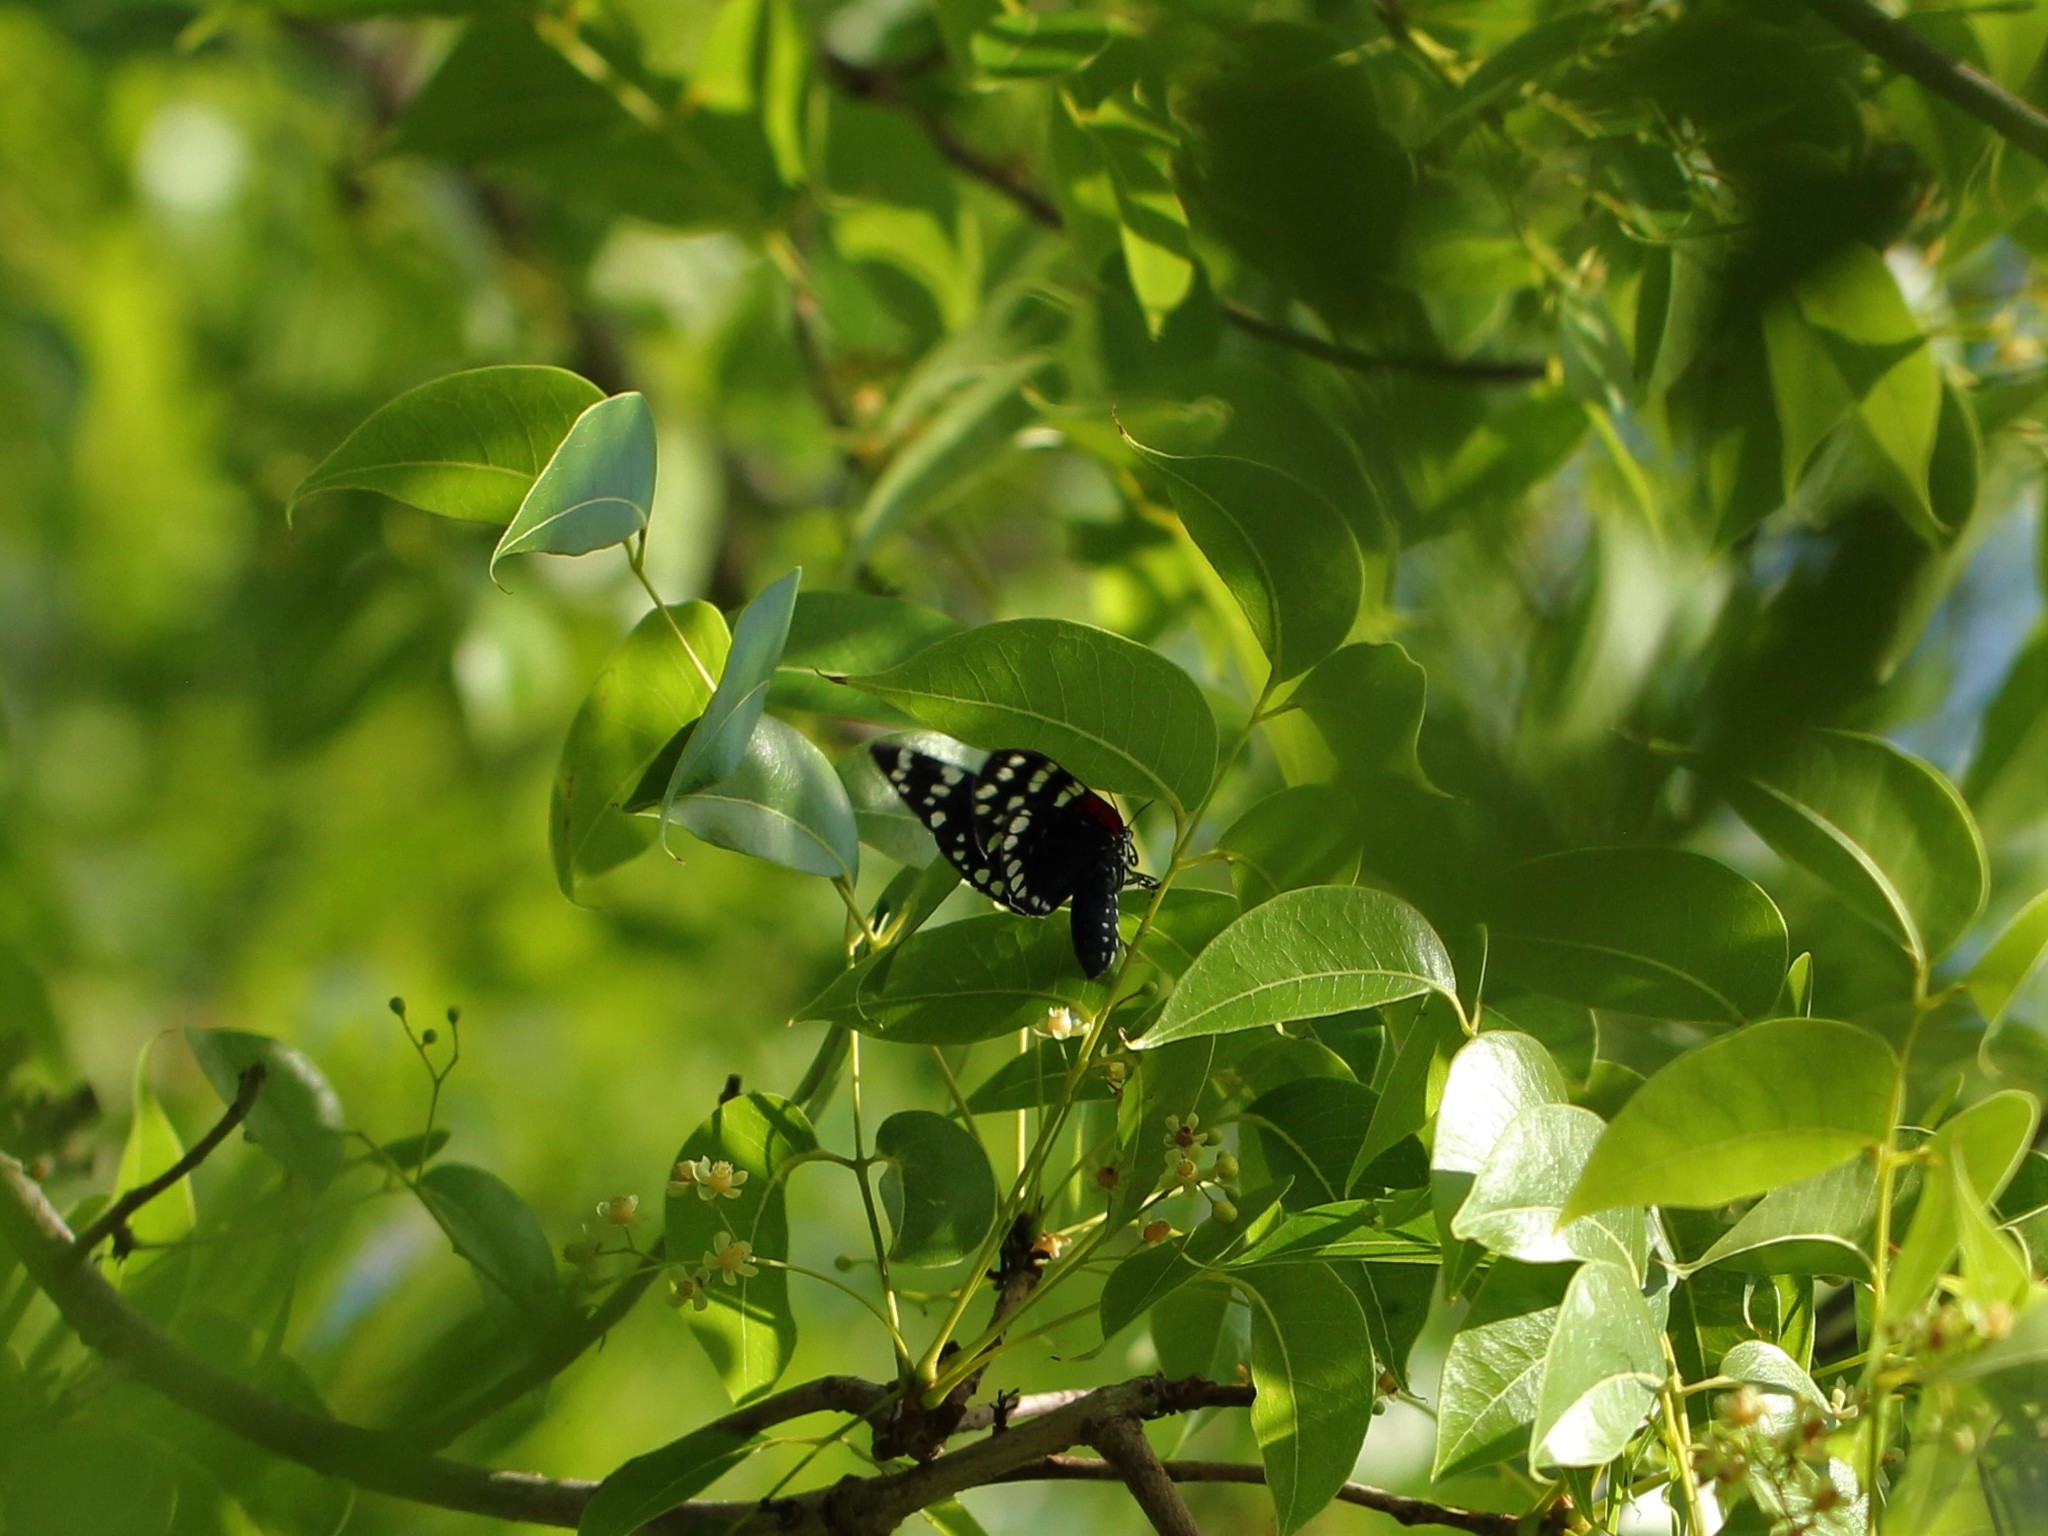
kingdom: Animalia
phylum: Arthropoda
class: Insecta
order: Lepidoptera
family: Erebidae
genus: Composia
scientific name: Composia fidelissima
